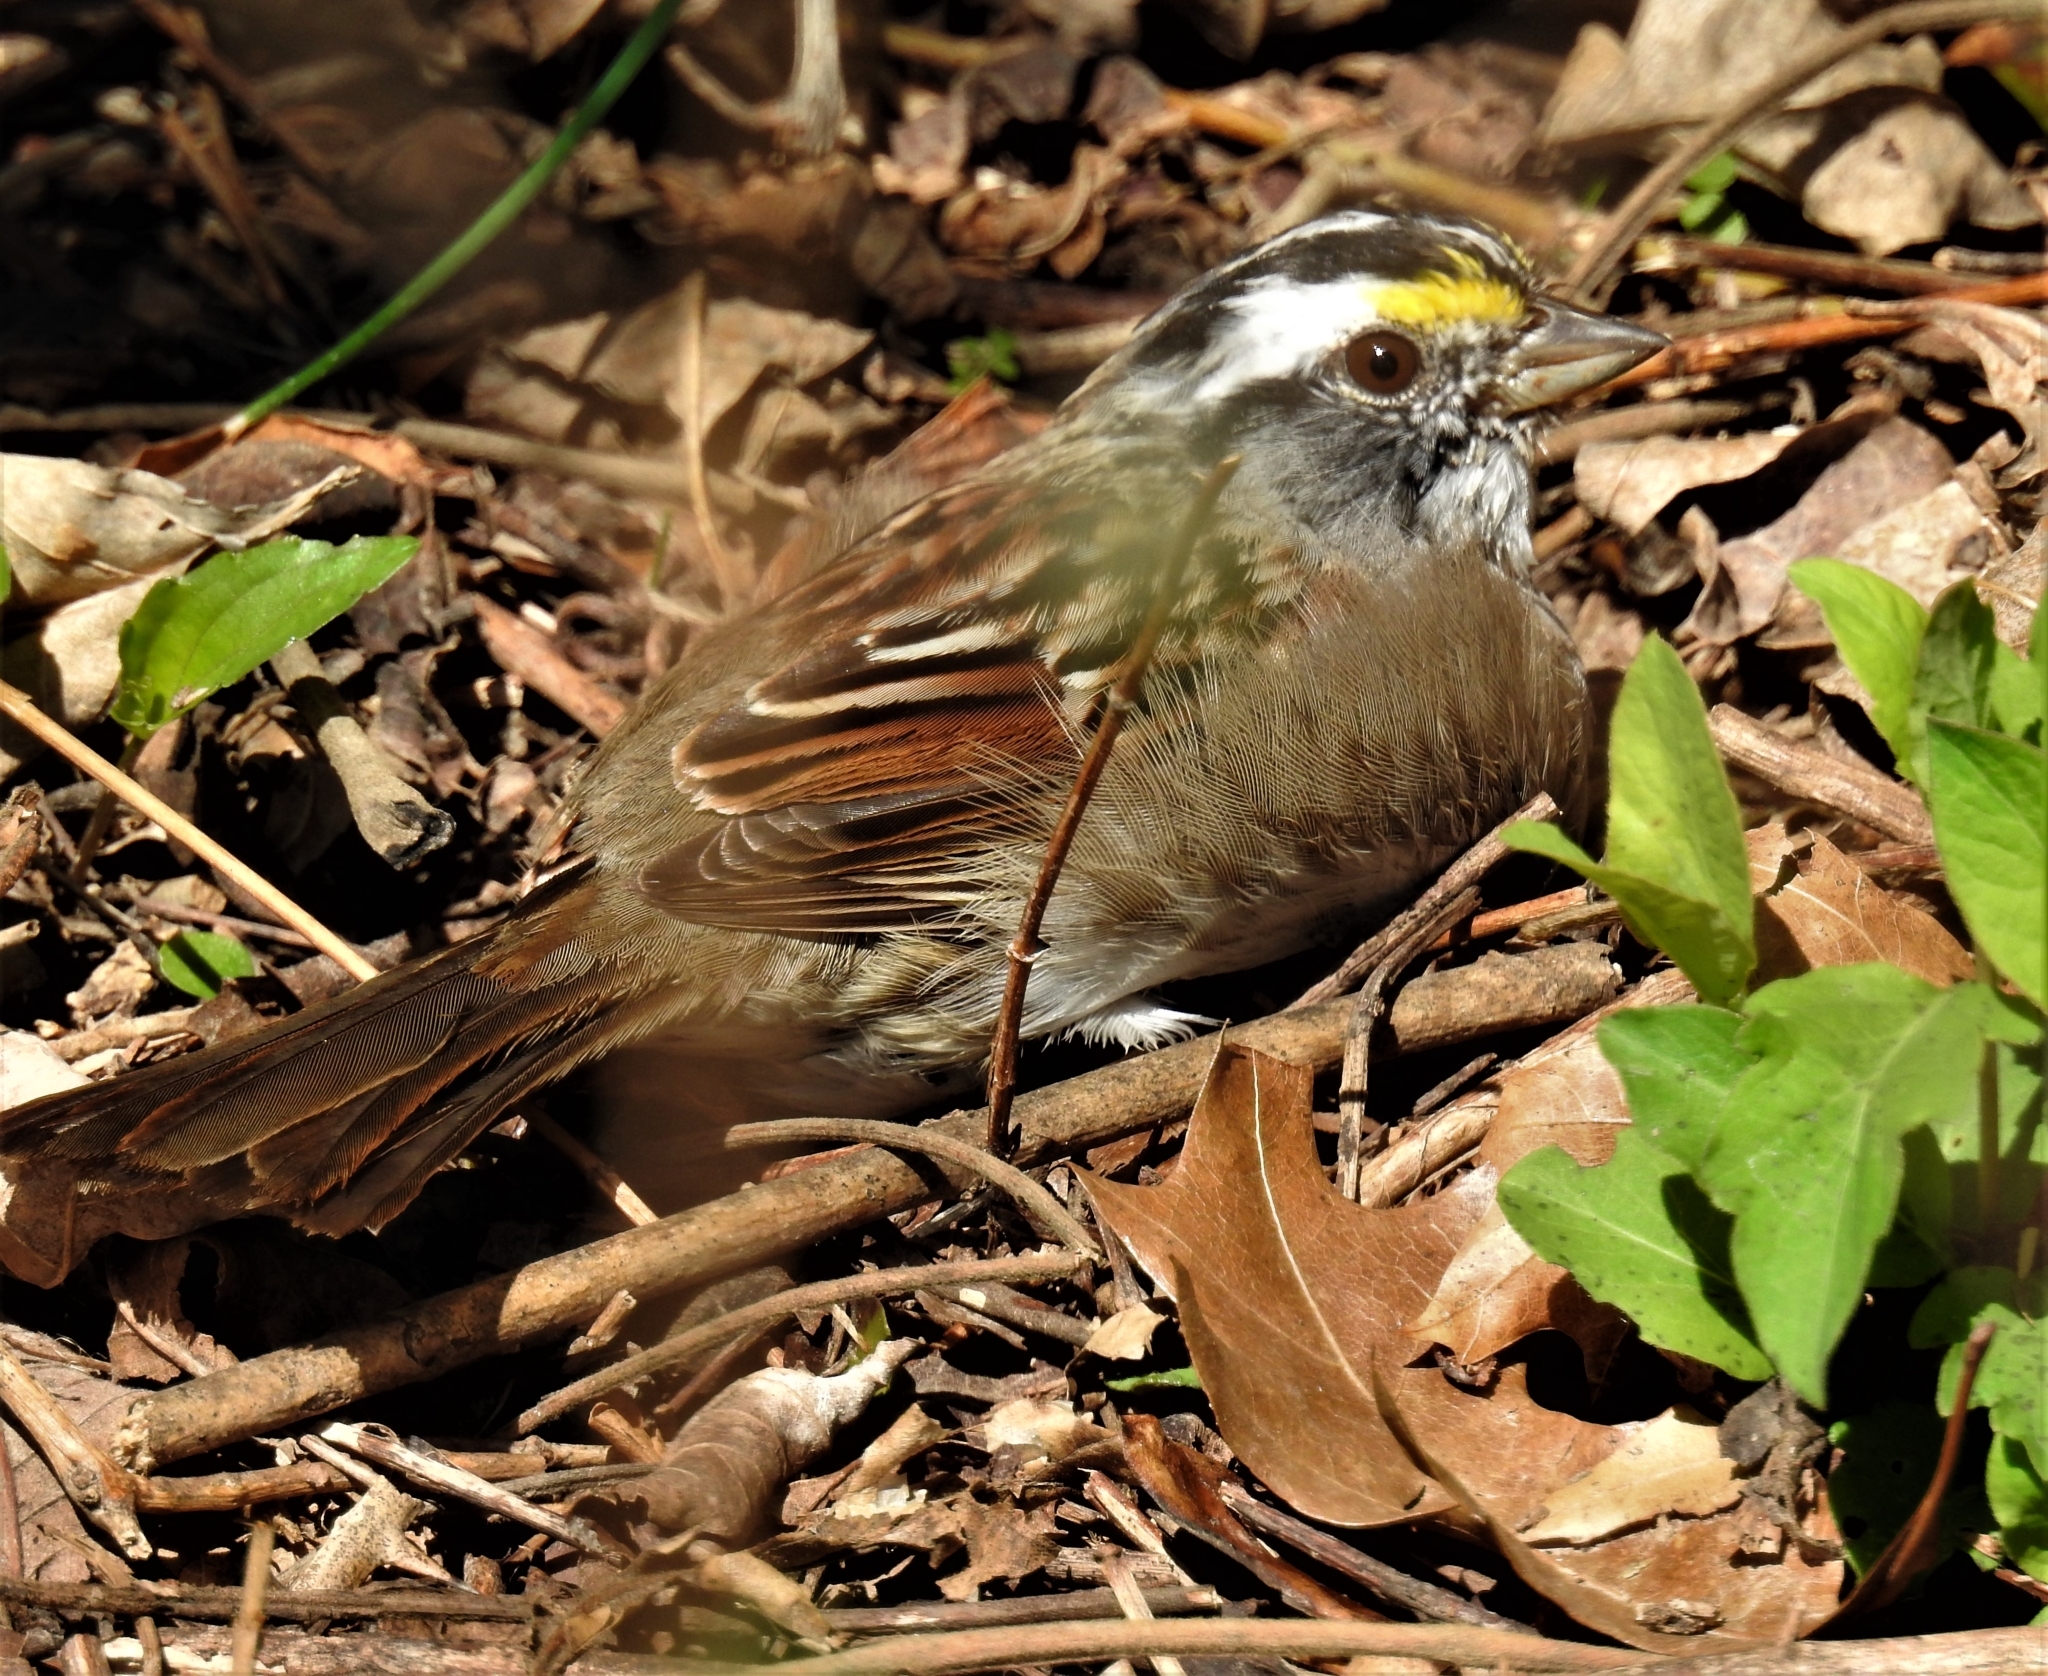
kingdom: Animalia
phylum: Chordata
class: Aves
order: Passeriformes
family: Passerellidae
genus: Zonotrichia
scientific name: Zonotrichia albicollis
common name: White-throated sparrow
